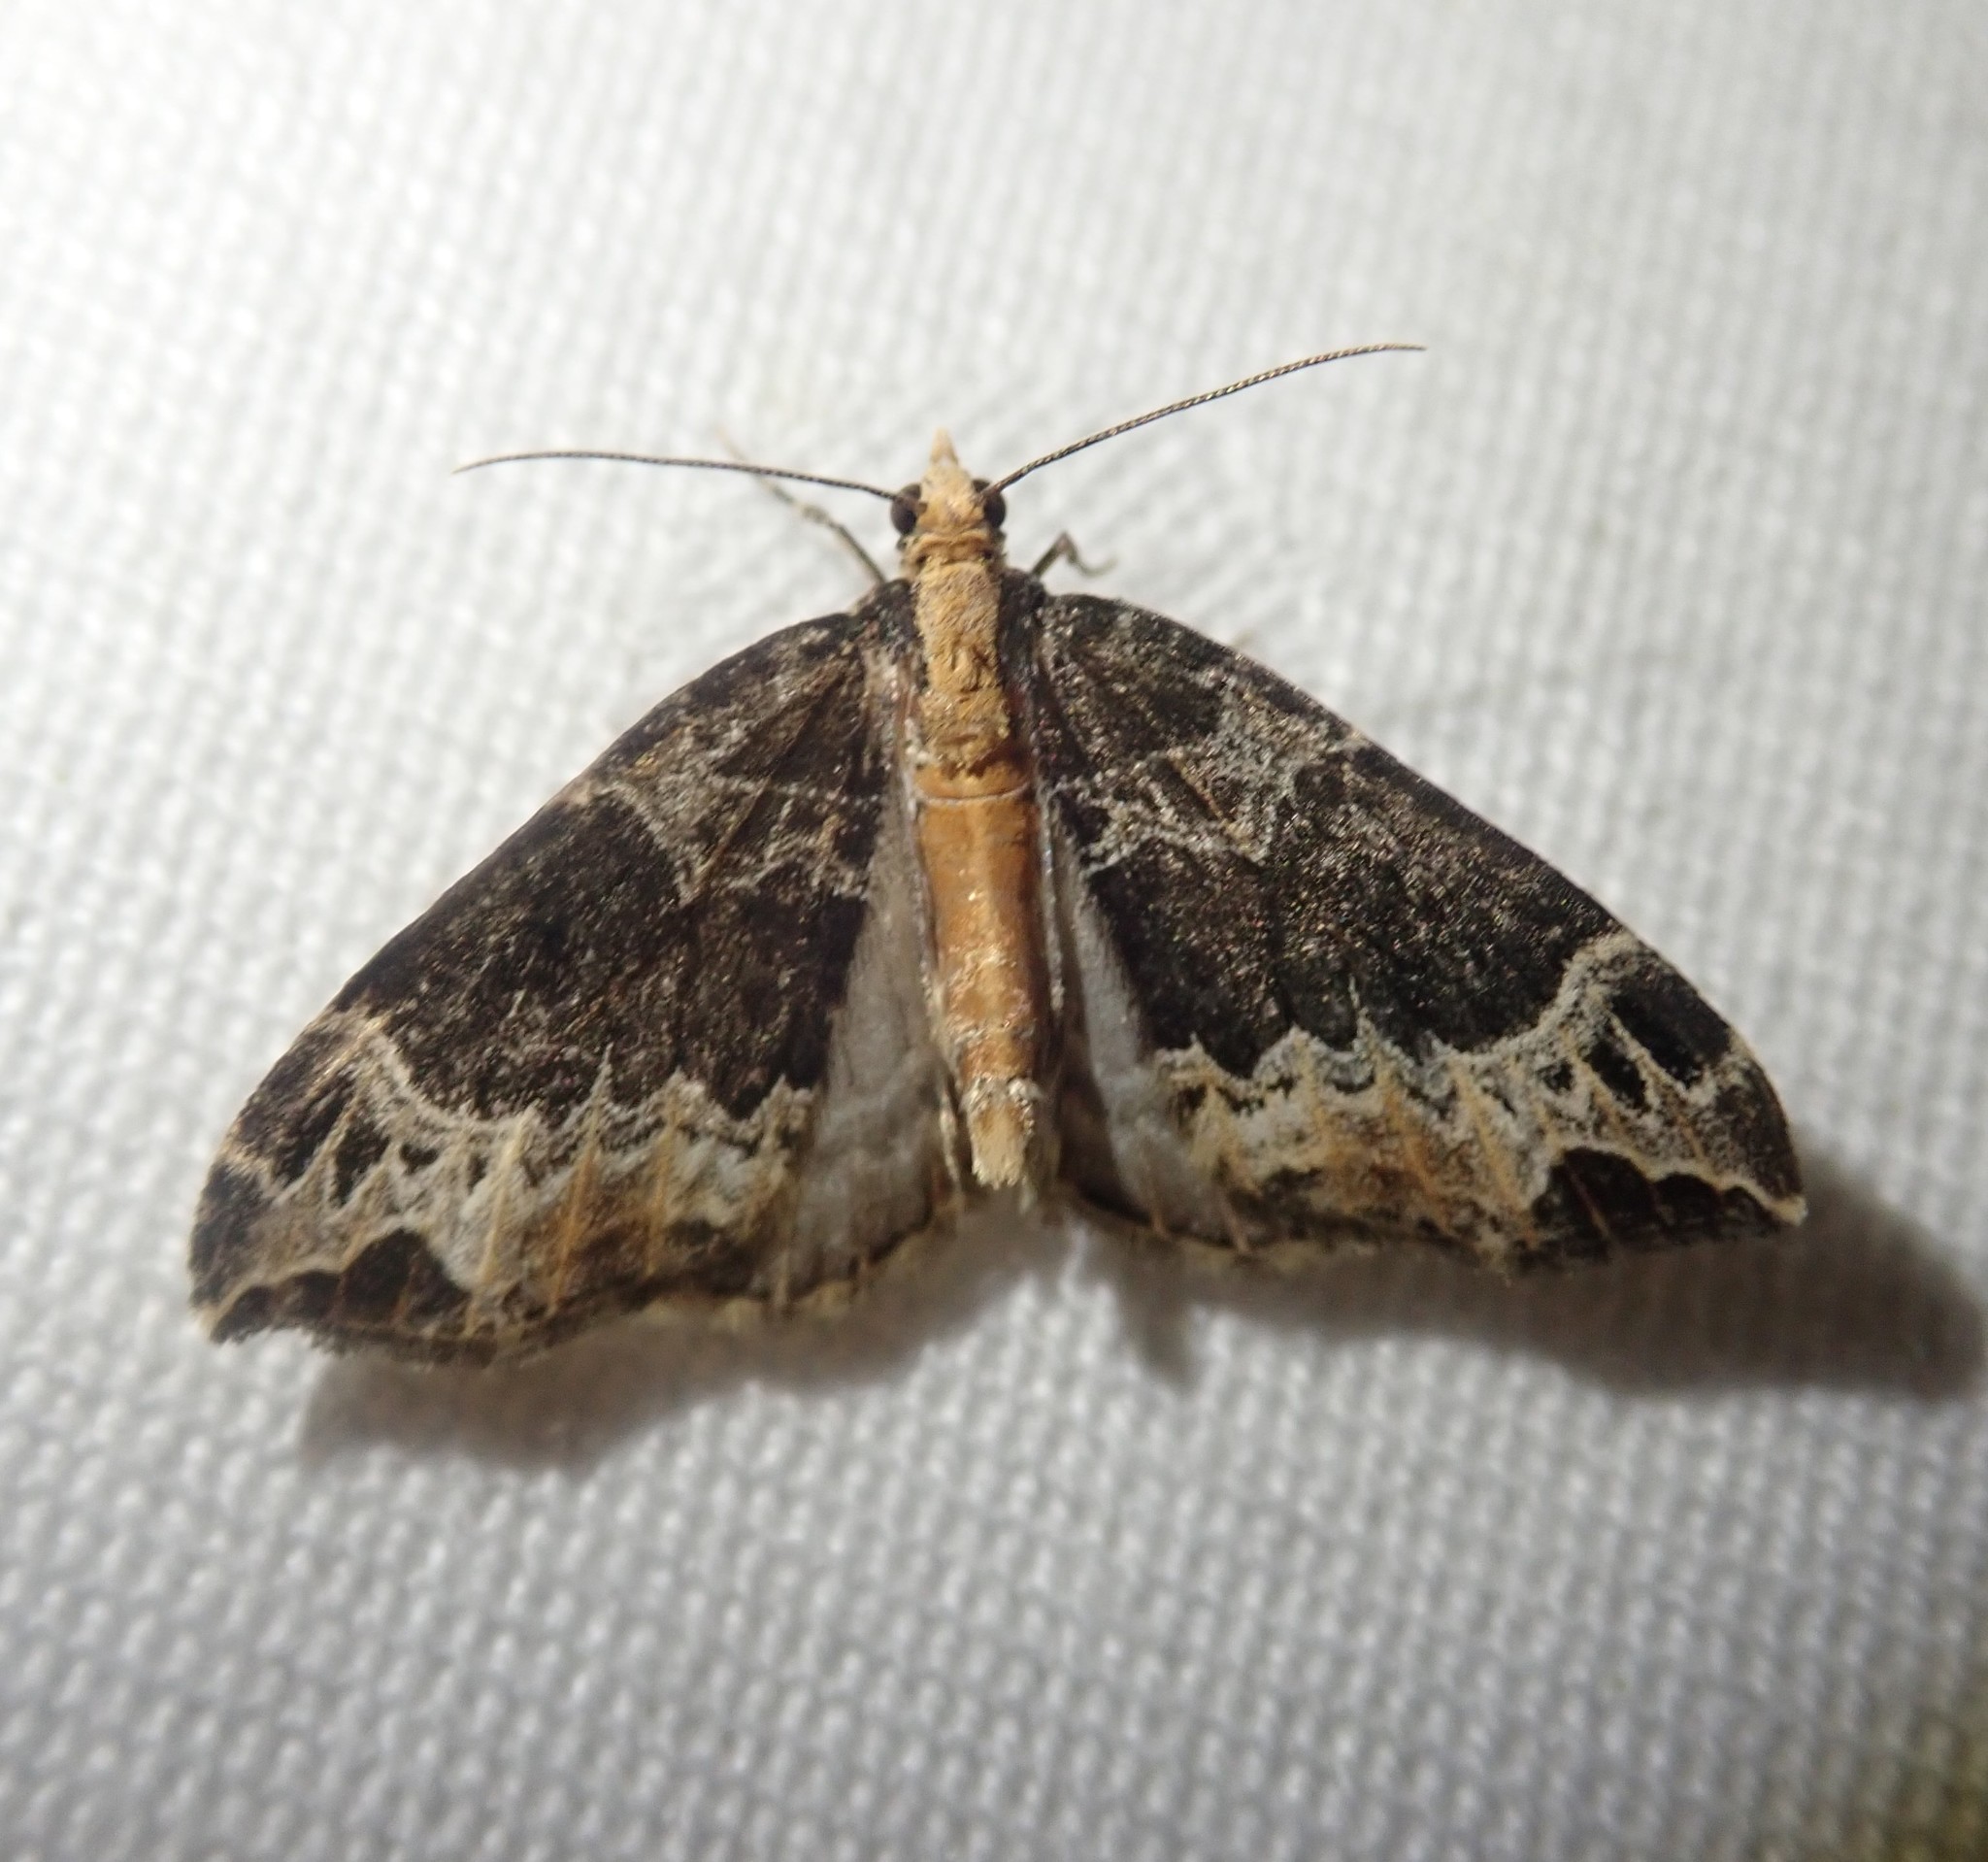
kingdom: Animalia
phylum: Arthropoda
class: Insecta
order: Lepidoptera
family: Geometridae
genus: Ecliptopera
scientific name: Ecliptopera silaceata
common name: Small phoenix
